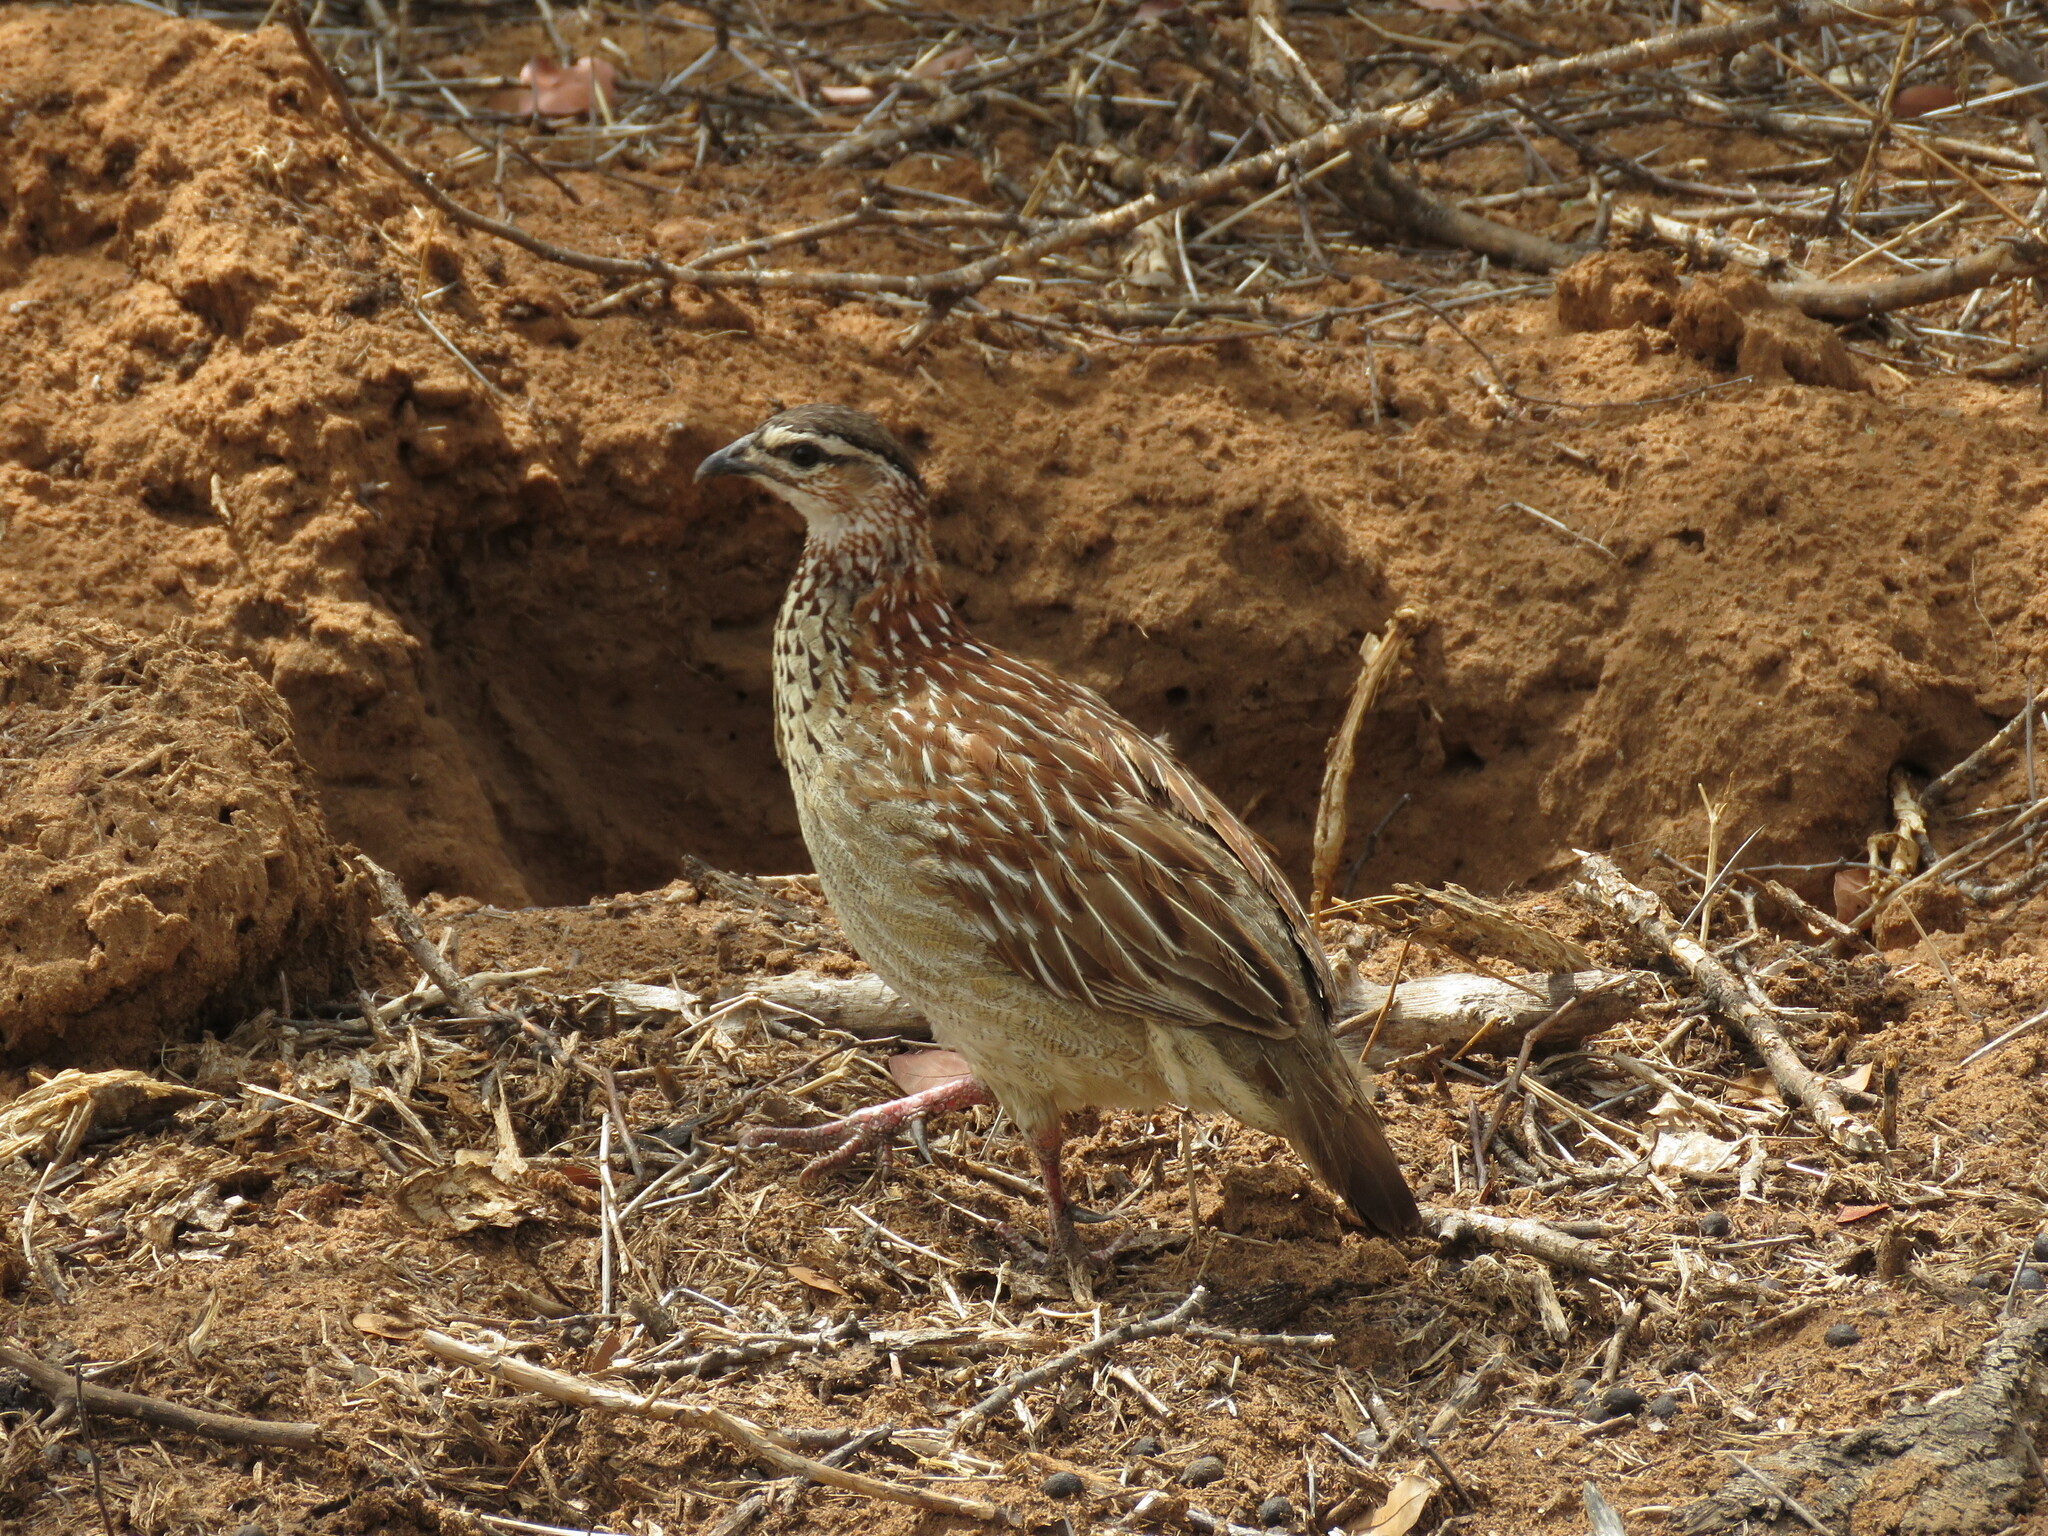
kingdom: Animalia
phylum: Chordata
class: Aves
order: Galliformes
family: Phasianidae
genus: Ortygornis
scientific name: Ortygornis sephaena
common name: Crested francolin
